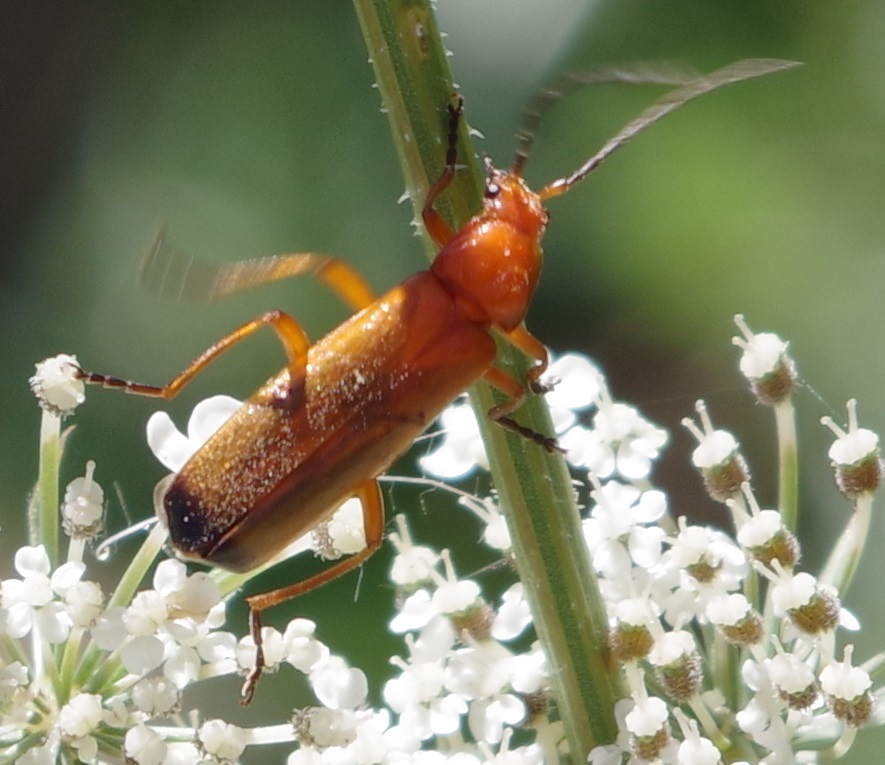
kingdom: Animalia
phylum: Arthropoda
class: Insecta
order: Coleoptera
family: Cantharidae
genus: Rhagonycha
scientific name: Rhagonycha fulva
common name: Common red soldier beetle
